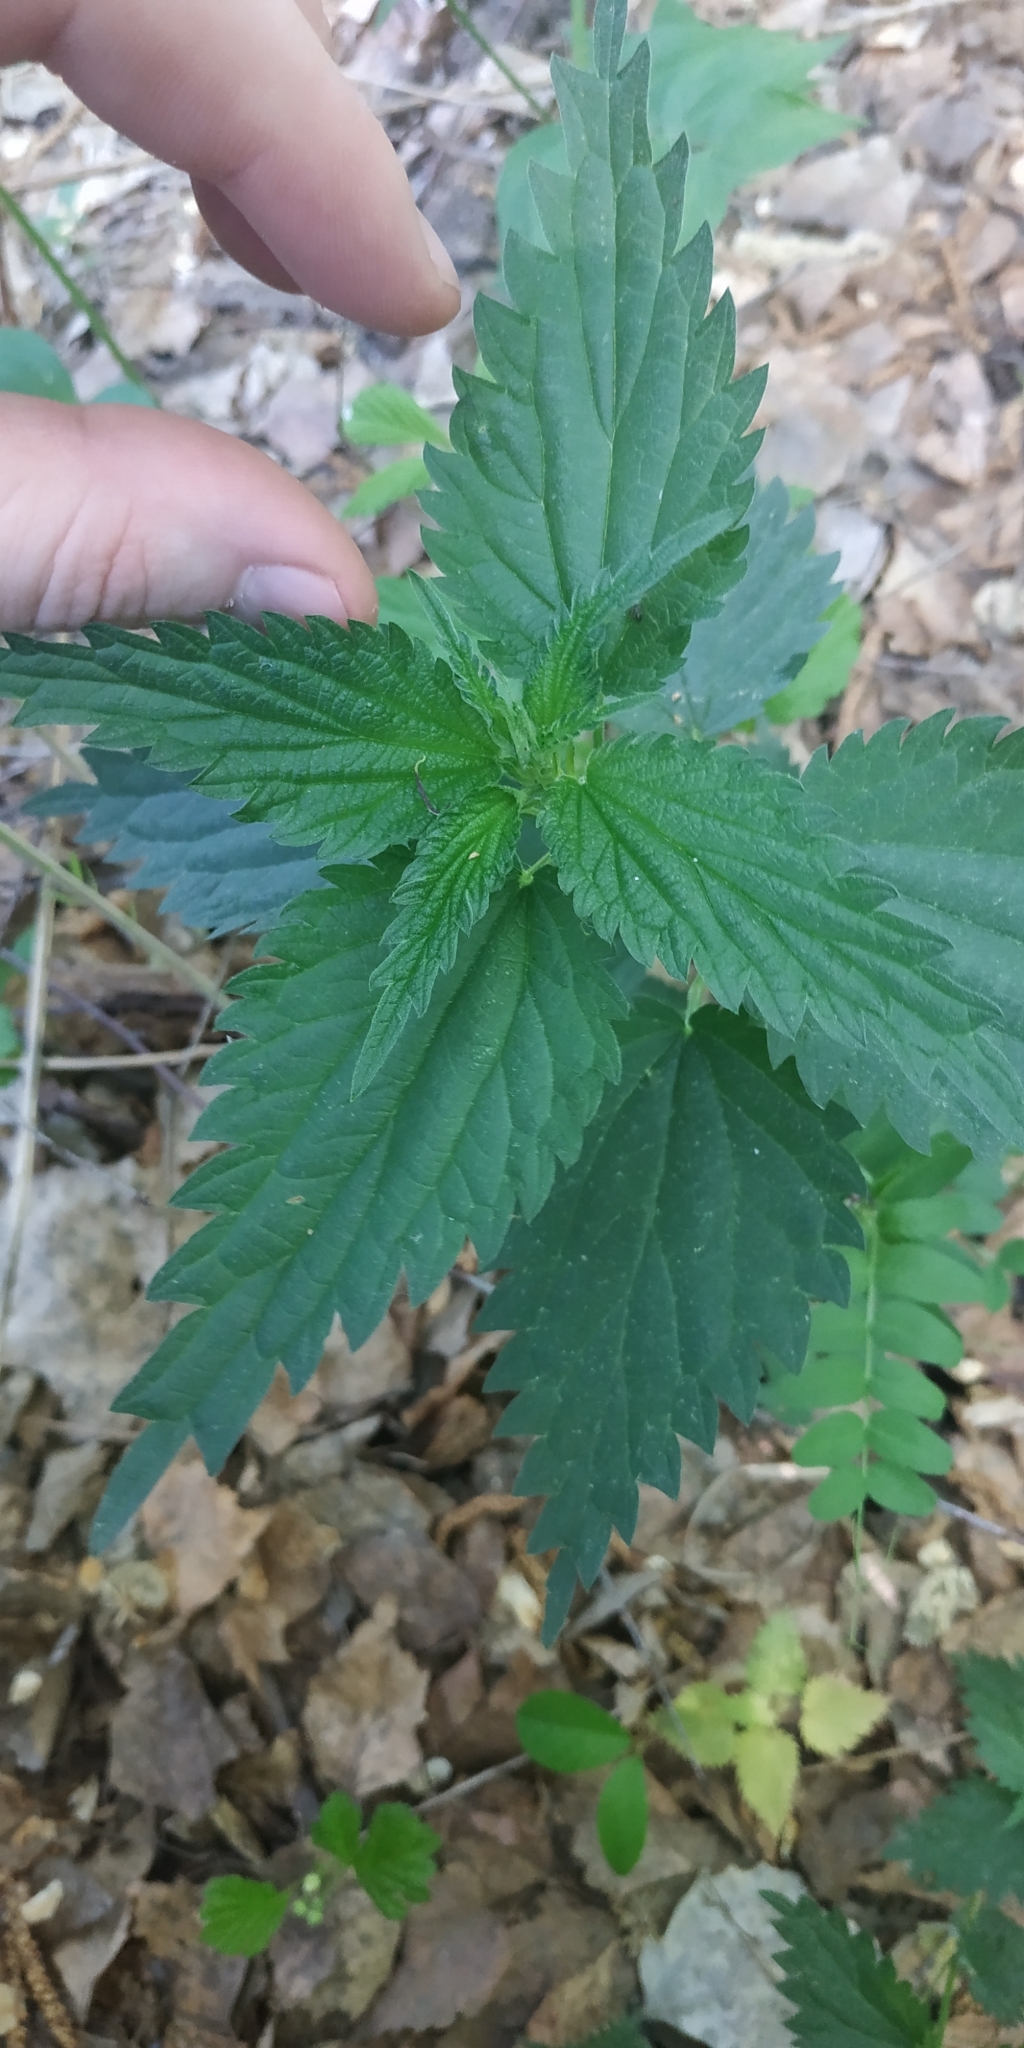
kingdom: Plantae
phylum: Tracheophyta
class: Magnoliopsida
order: Rosales
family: Urticaceae
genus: Urtica
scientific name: Urtica dioica
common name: Common nettle
